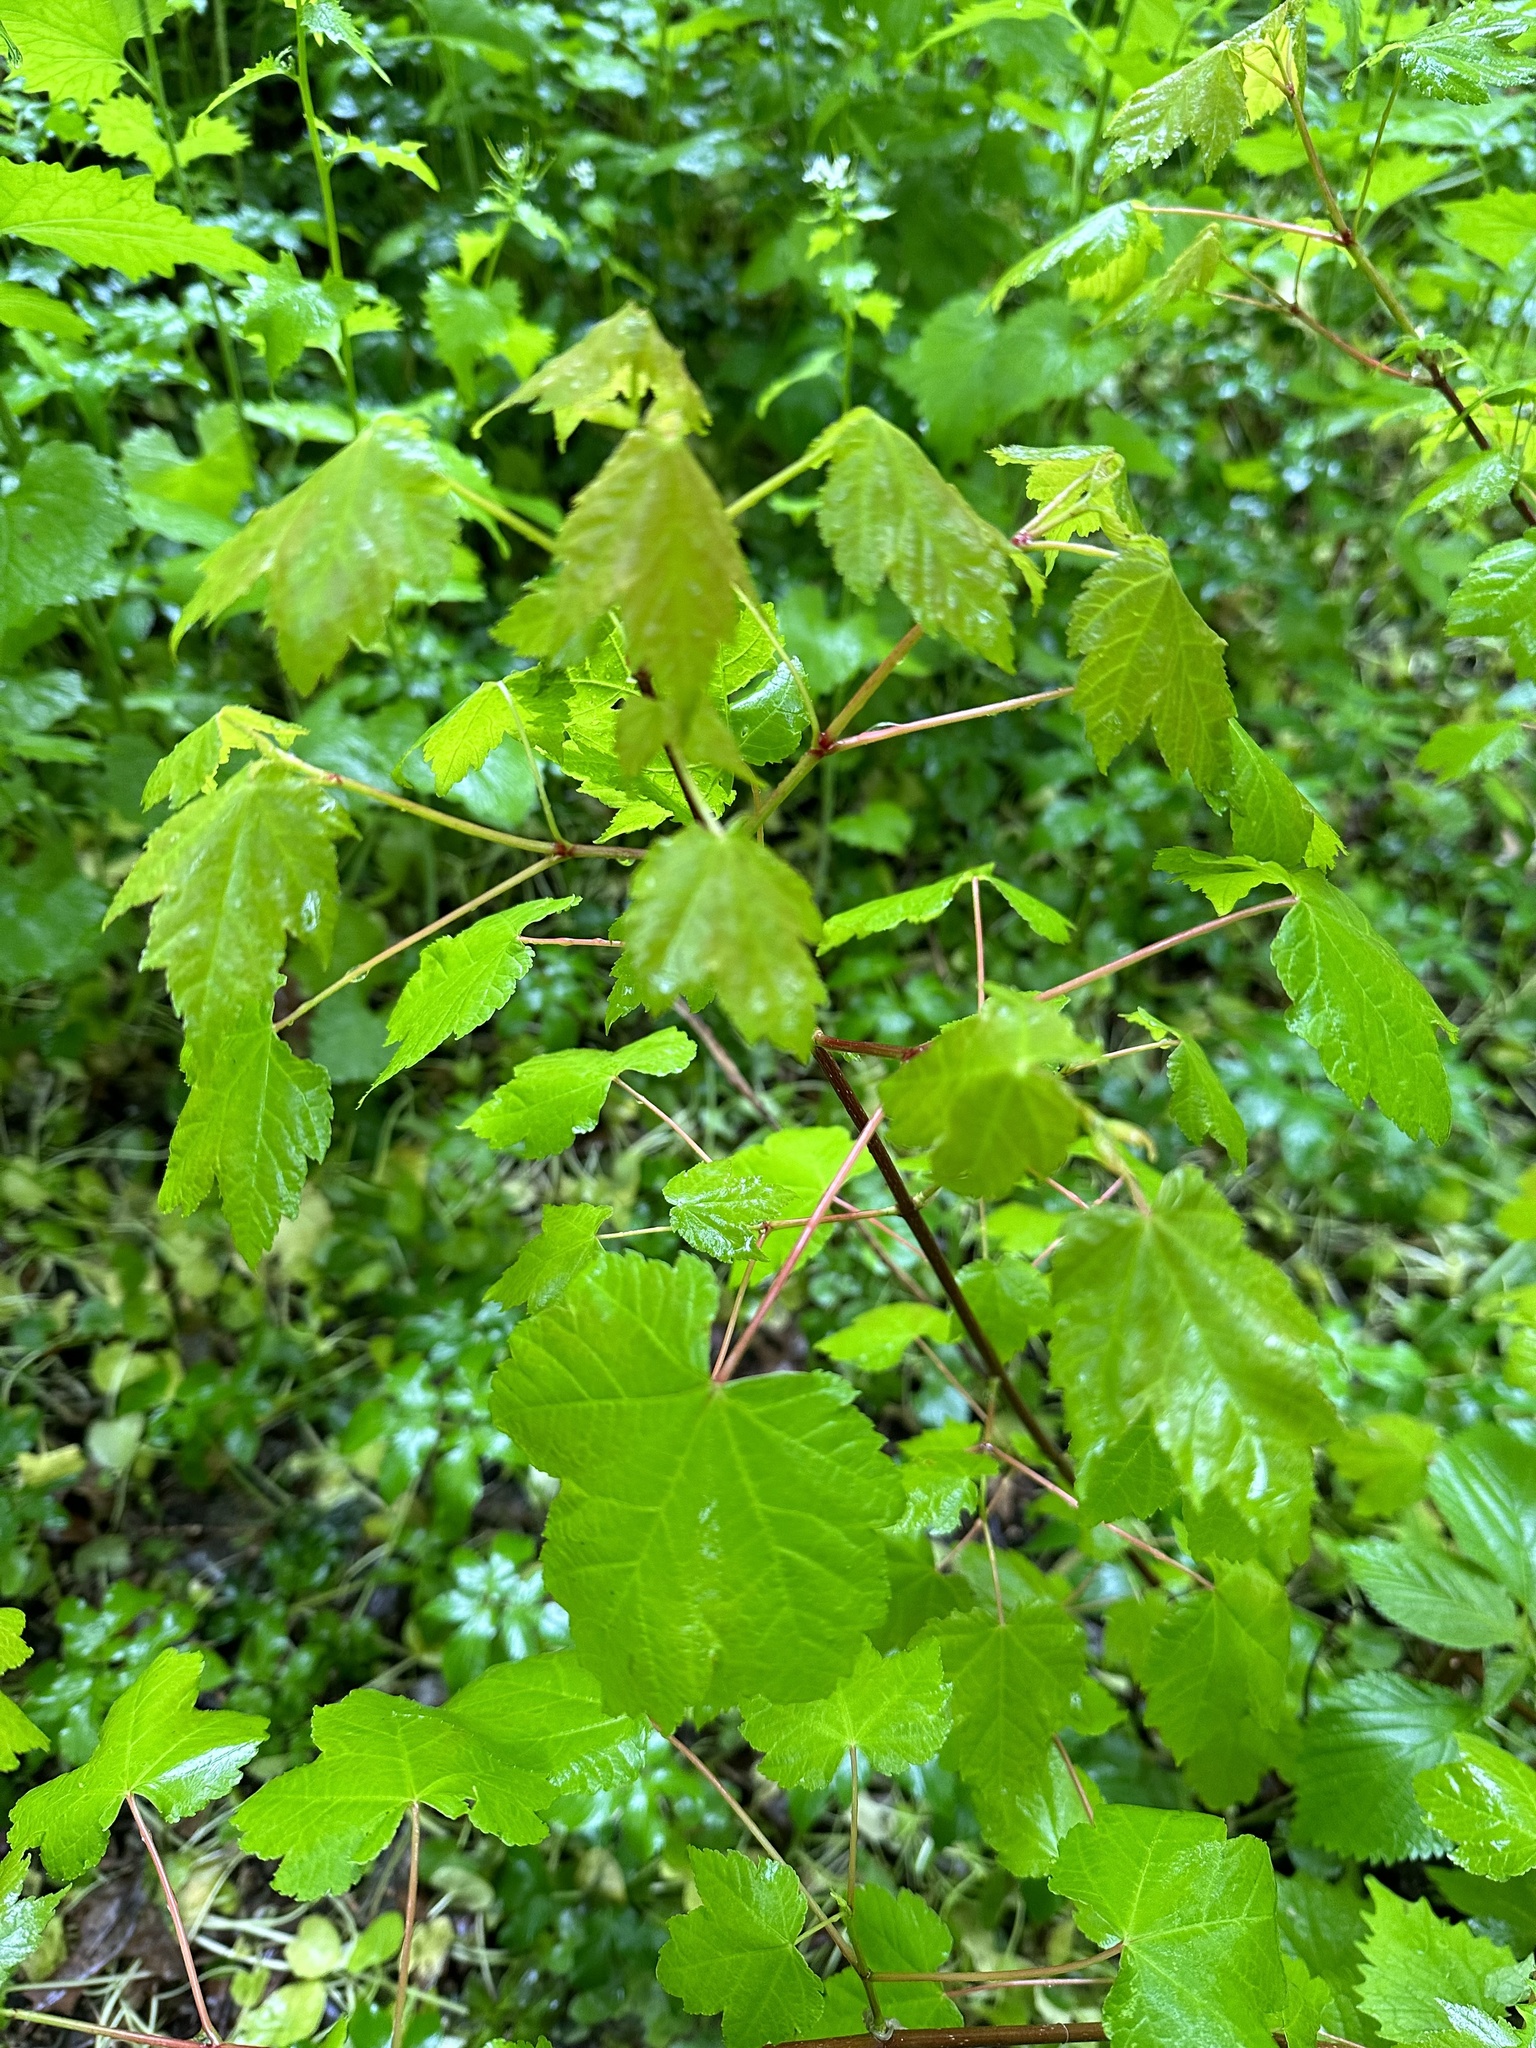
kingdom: Plantae
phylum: Tracheophyta
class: Magnoliopsida
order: Sapindales
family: Sapindaceae
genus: Acer
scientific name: Acer rubrum
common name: Red maple
